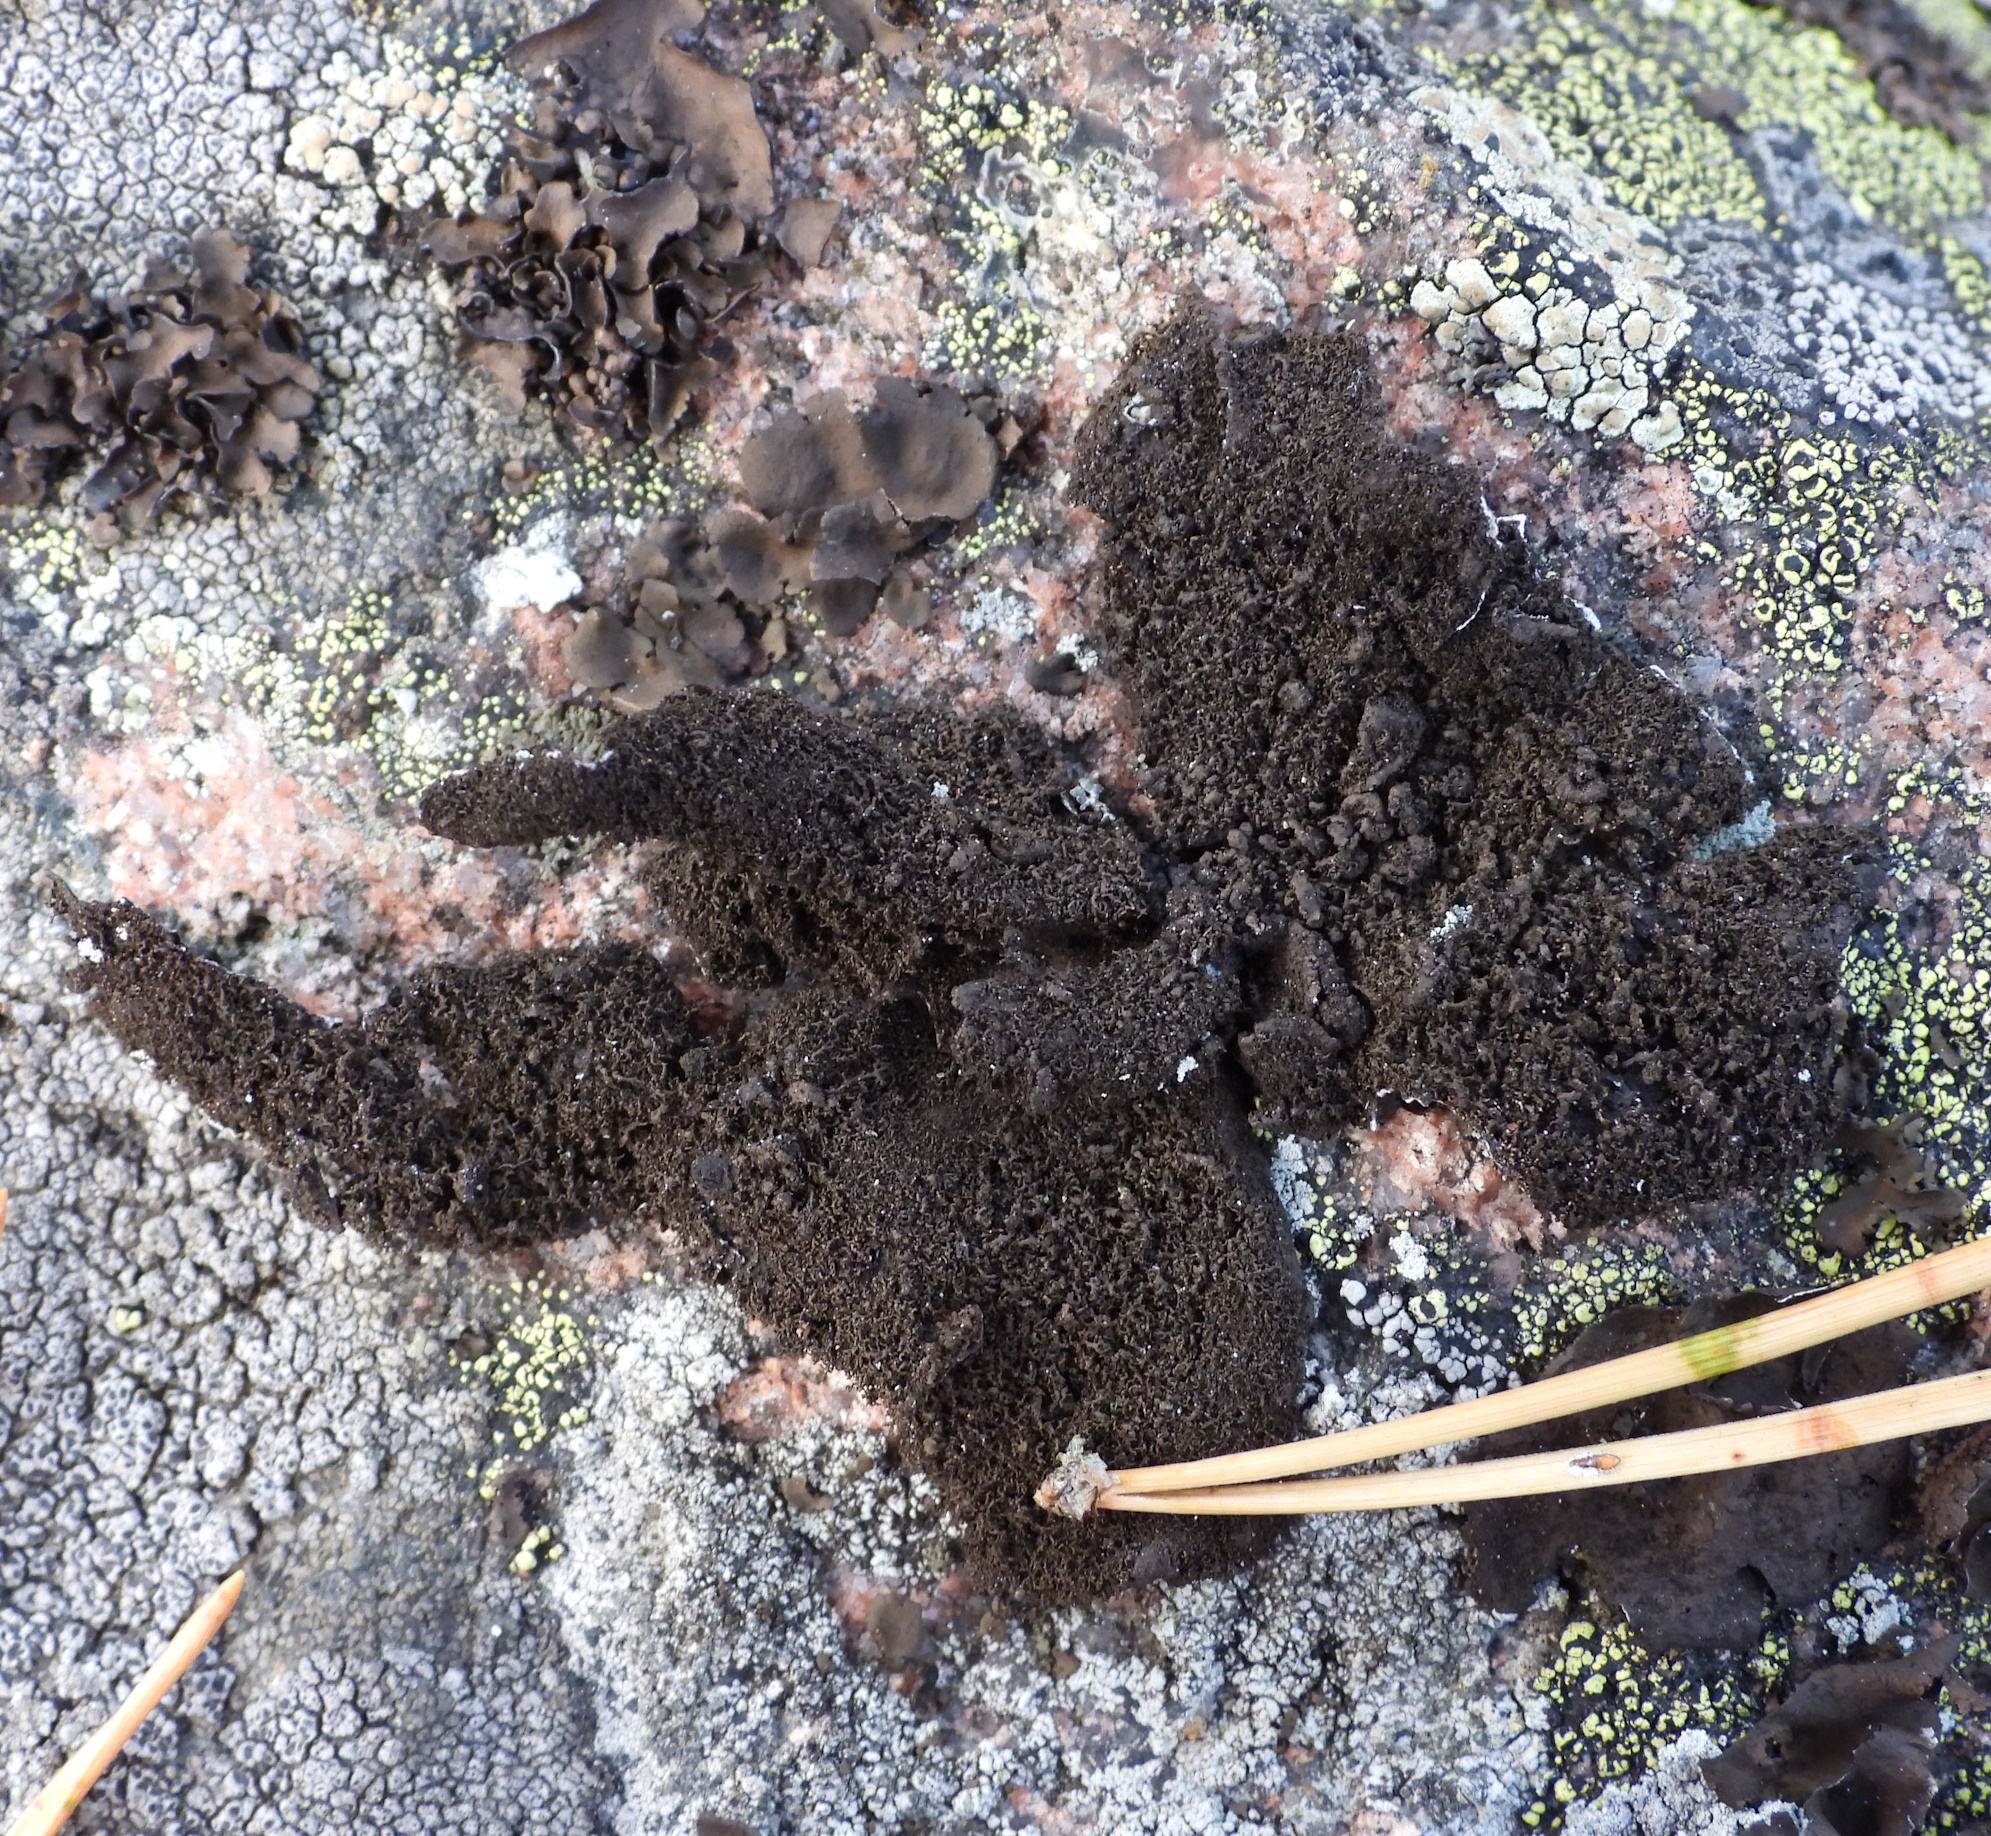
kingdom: Fungi
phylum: Ascomycota
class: Lecanoromycetes
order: Umbilicariales
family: Umbilicariaceae
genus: Umbilicaria
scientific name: Umbilicaria deusta
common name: Peppered rock tripe
